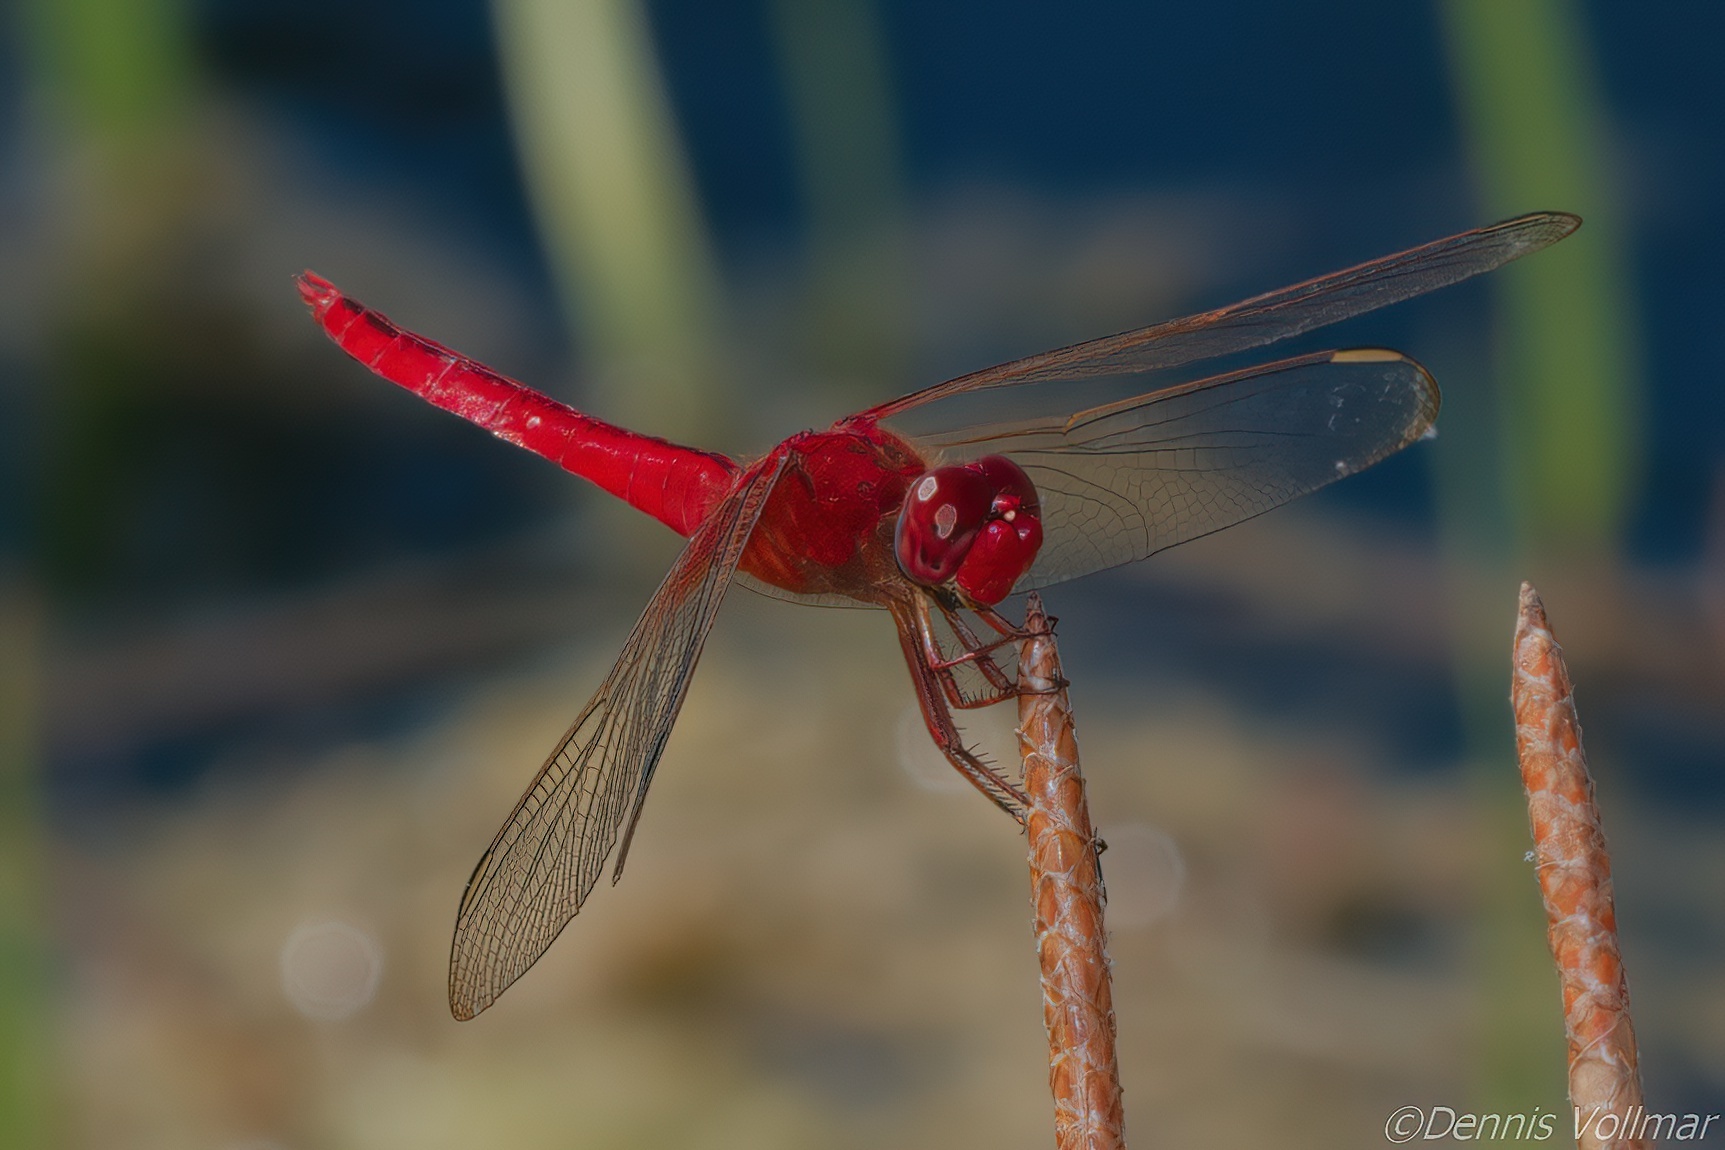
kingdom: Animalia
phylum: Arthropoda
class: Insecta
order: Odonata
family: Libellulidae
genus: Crocothemis
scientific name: Crocothemis servilia
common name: Scarlet skimmer
